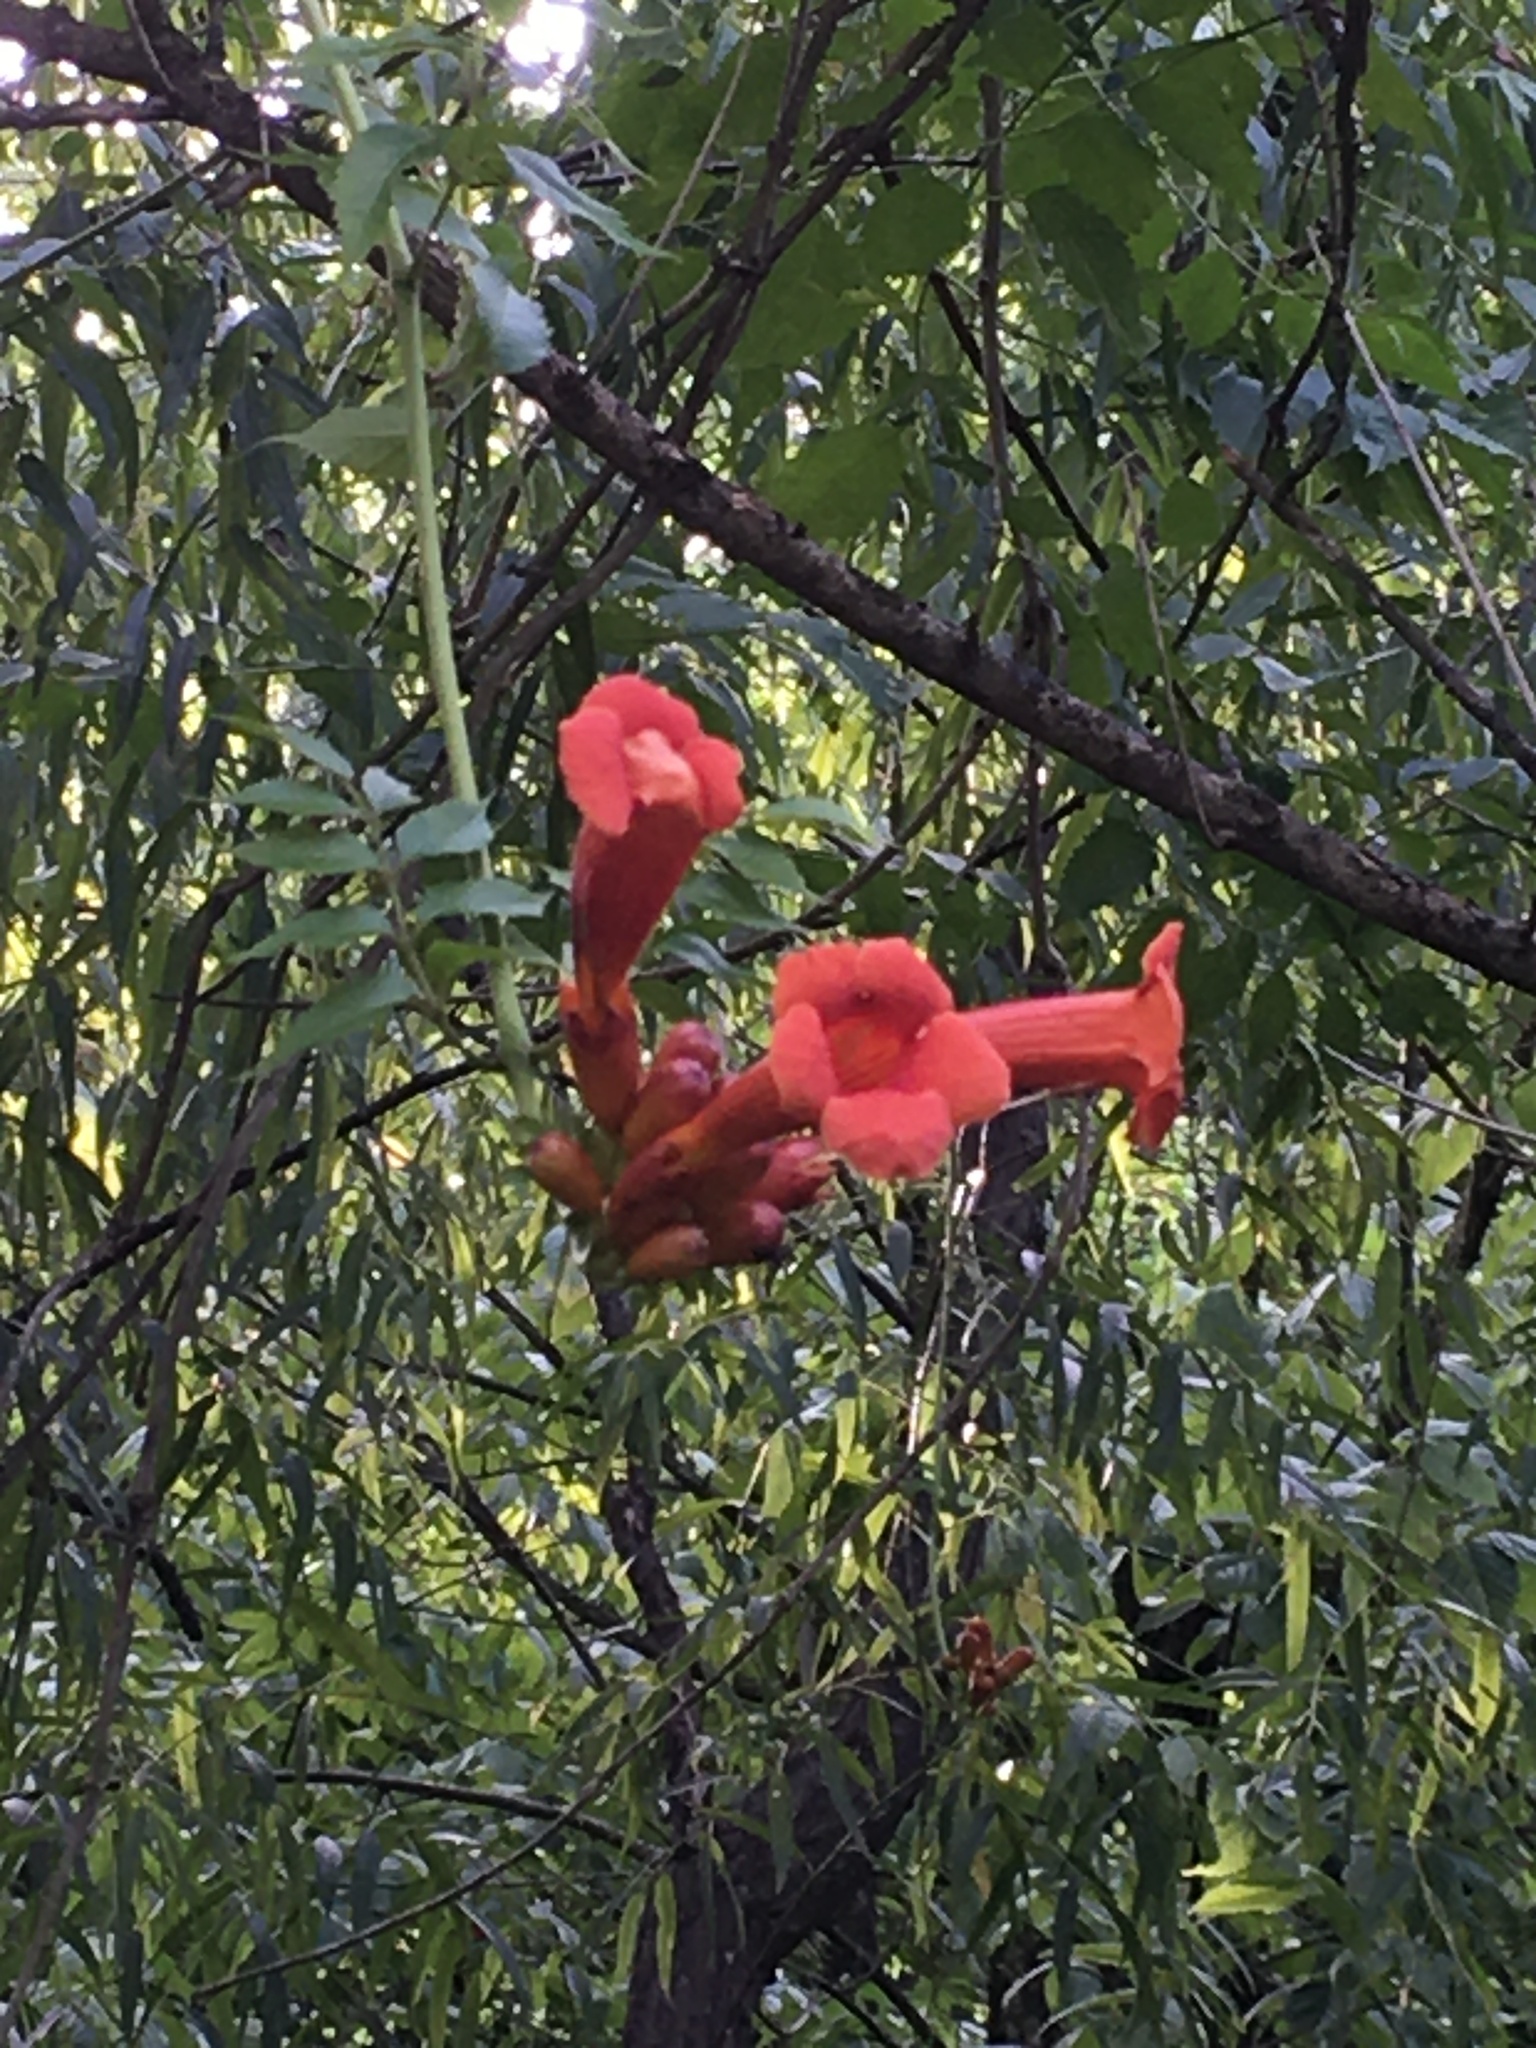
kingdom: Plantae
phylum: Tracheophyta
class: Magnoliopsida
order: Lamiales
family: Bignoniaceae
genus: Campsis
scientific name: Campsis radicans
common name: Trumpet-creeper
